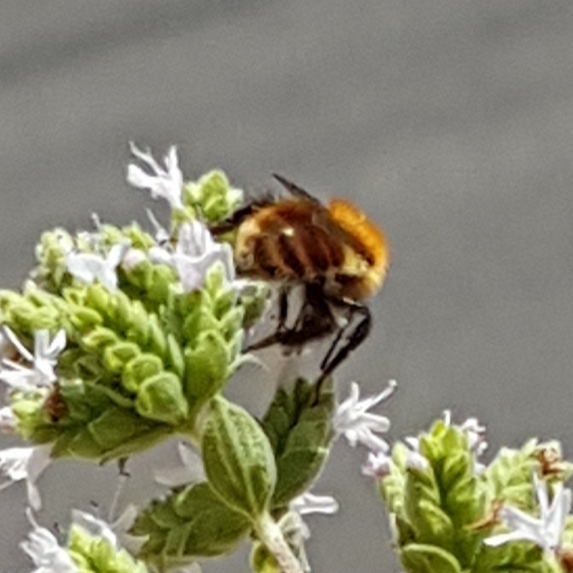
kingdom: Animalia
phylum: Arthropoda
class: Insecta
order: Hymenoptera
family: Apidae
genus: Bombus
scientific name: Bombus pascuorum
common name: Common carder bee
